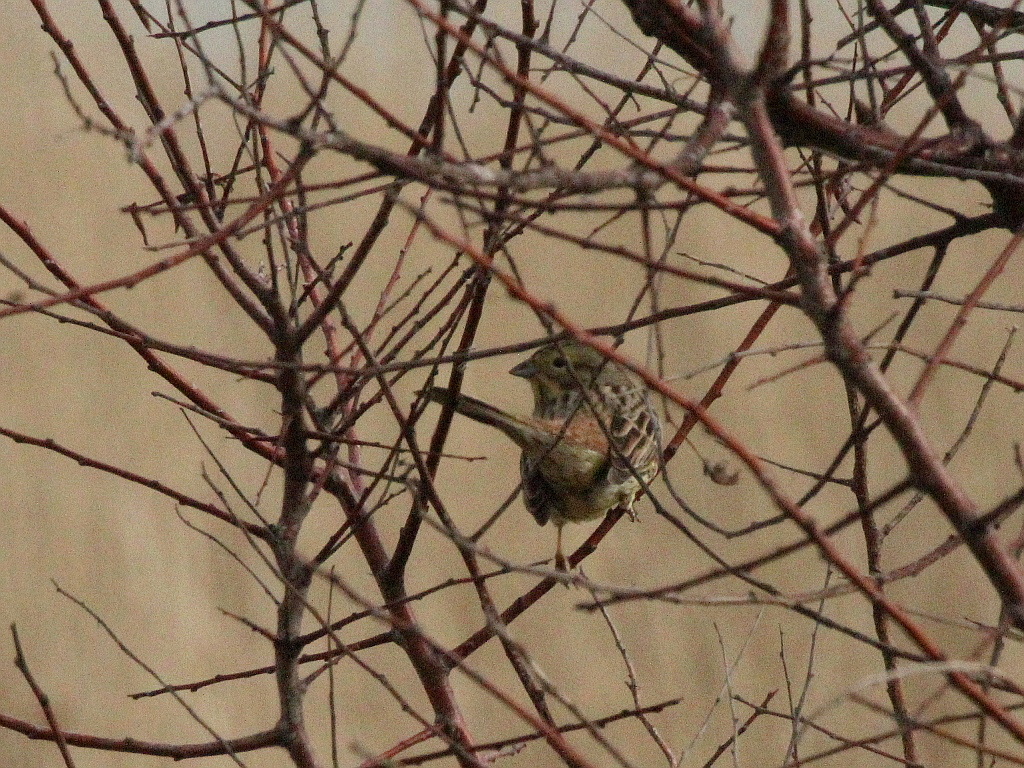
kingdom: Animalia
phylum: Chordata
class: Aves
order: Passeriformes
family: Emberizidae
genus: Emberiza
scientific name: Emberiza citrinella
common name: Yellowhammer
